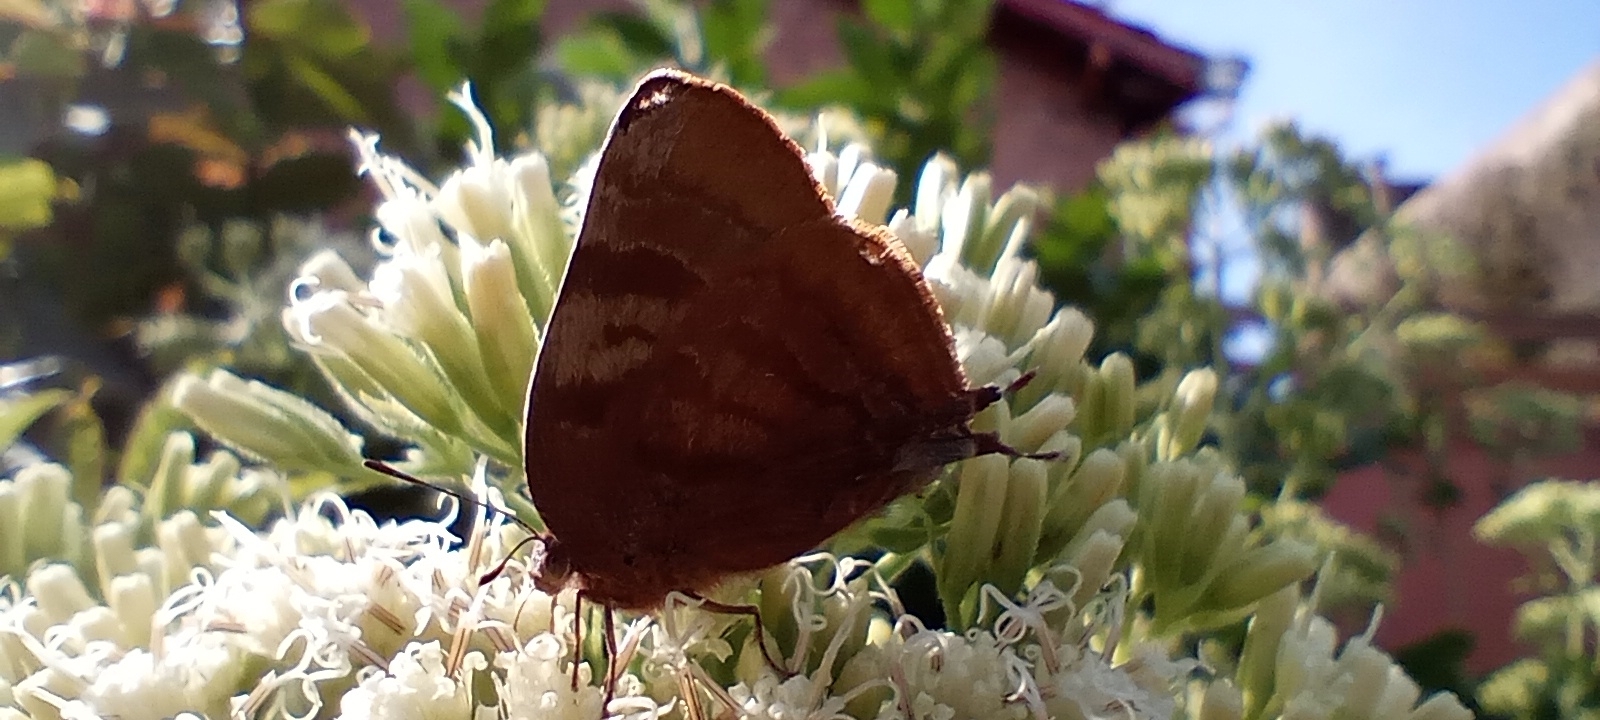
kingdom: Animalia
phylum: Arthropoda
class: Insecta
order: Lepidoptera
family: Lycaenidae
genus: Thecla
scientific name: Thecla marius
